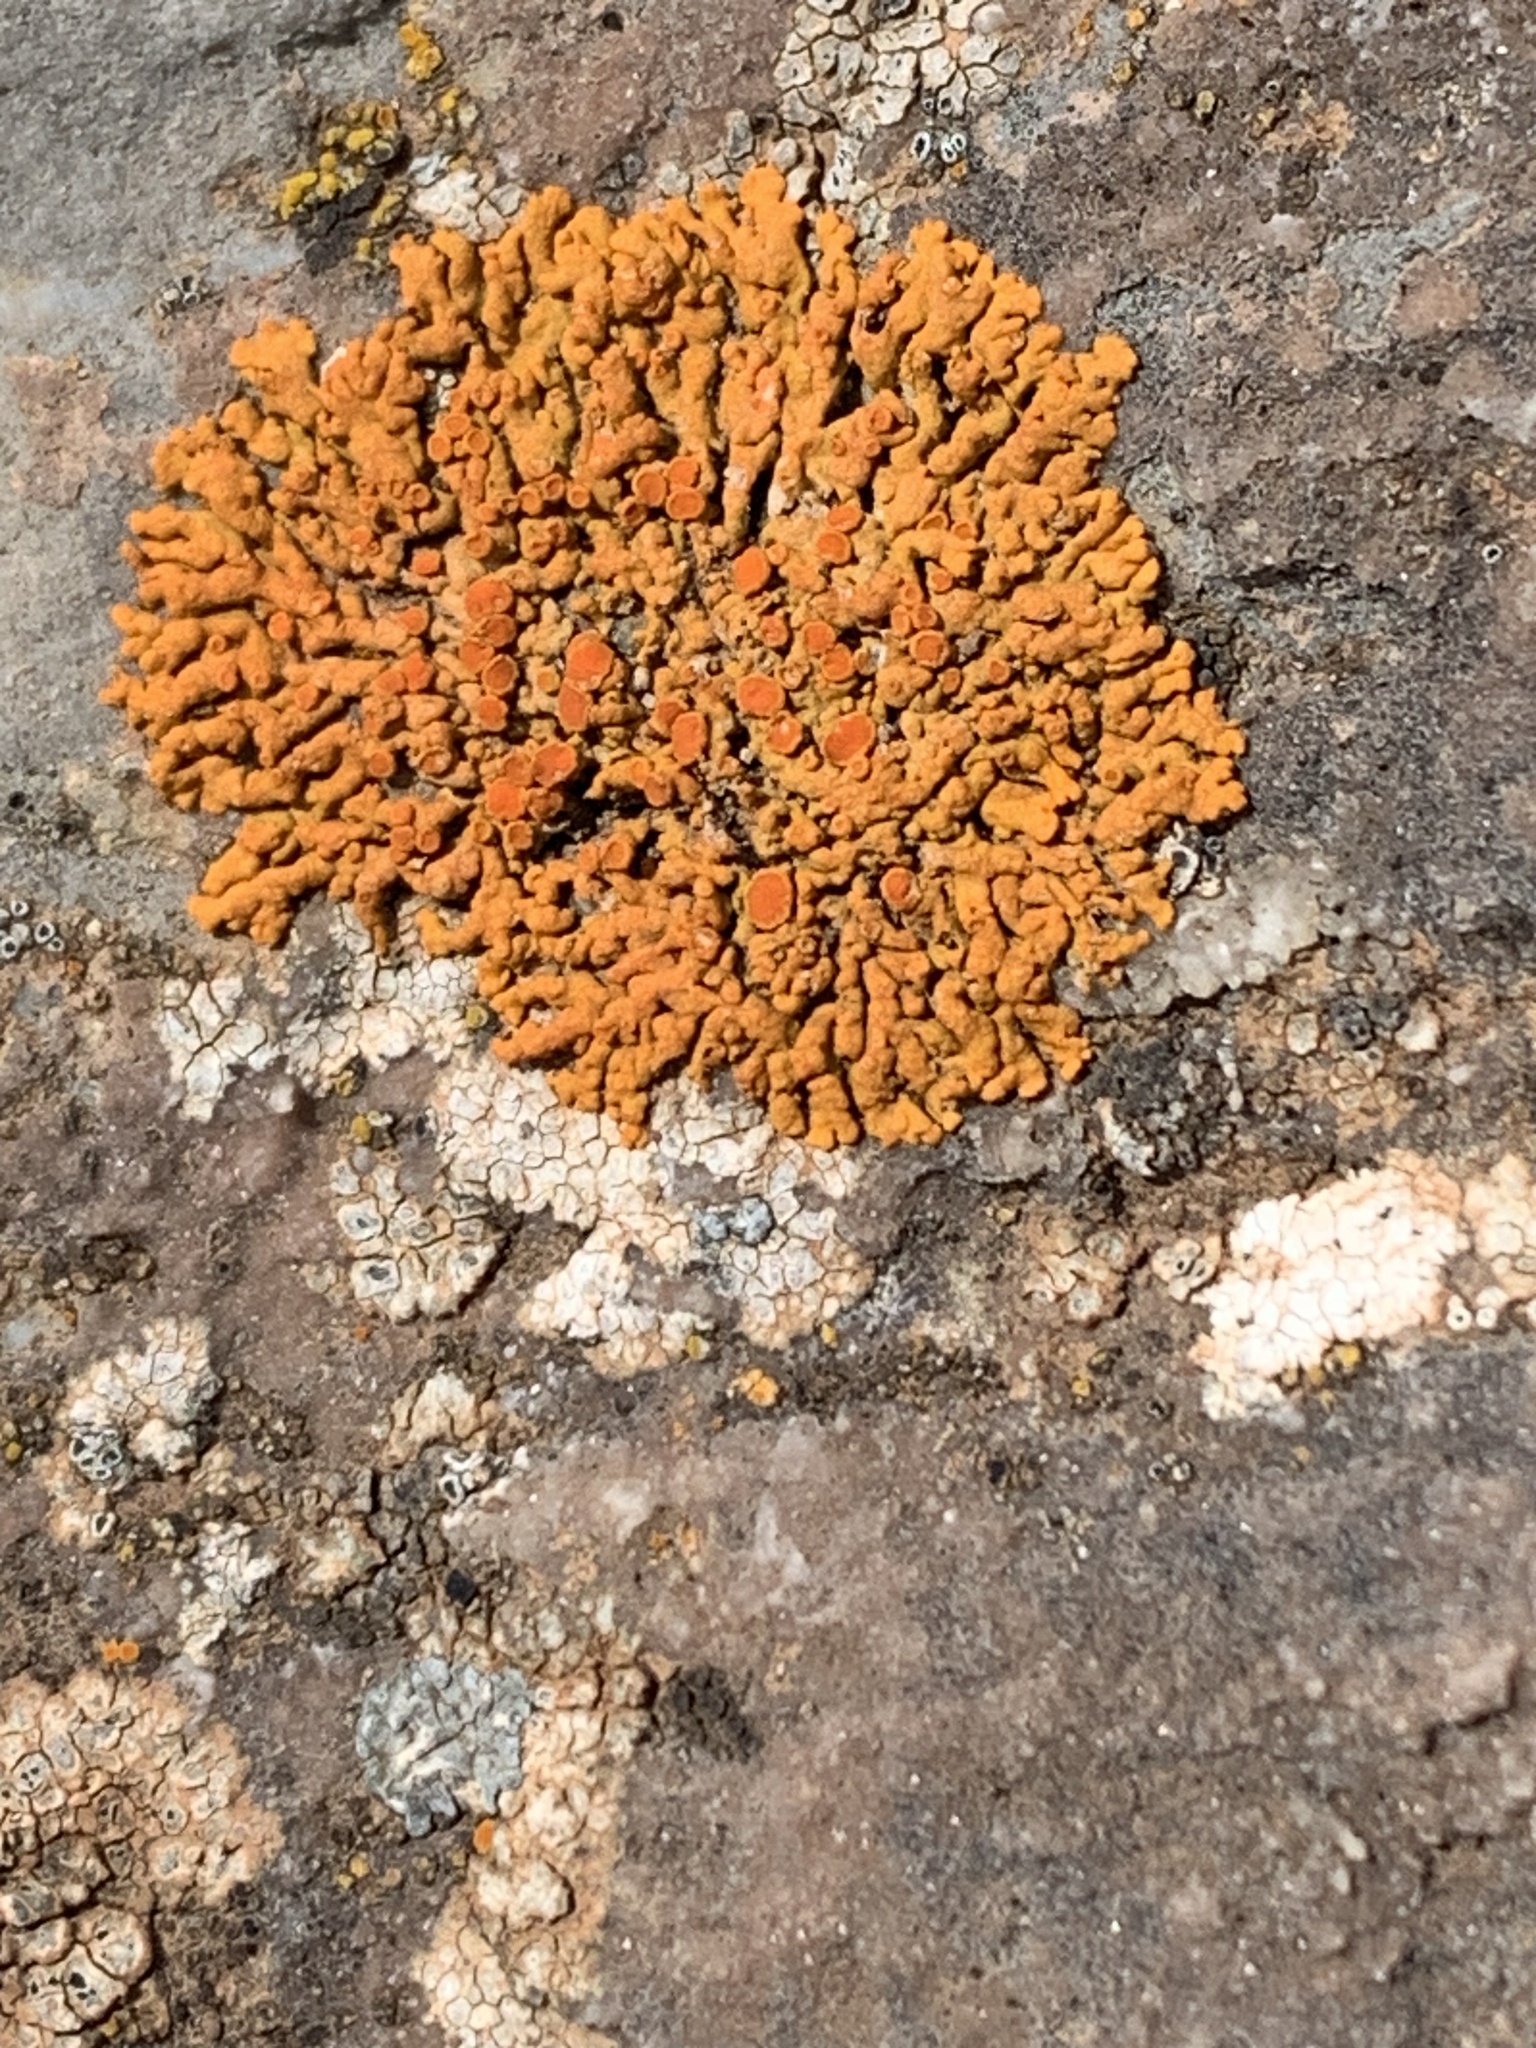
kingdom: Fungi
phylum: Ascomycota
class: Lecanoromycetes
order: Teloschistales
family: Teloschistaceae
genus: Xanthoria
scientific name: Xanthoria elegans
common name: Elegant sunburst lichen
